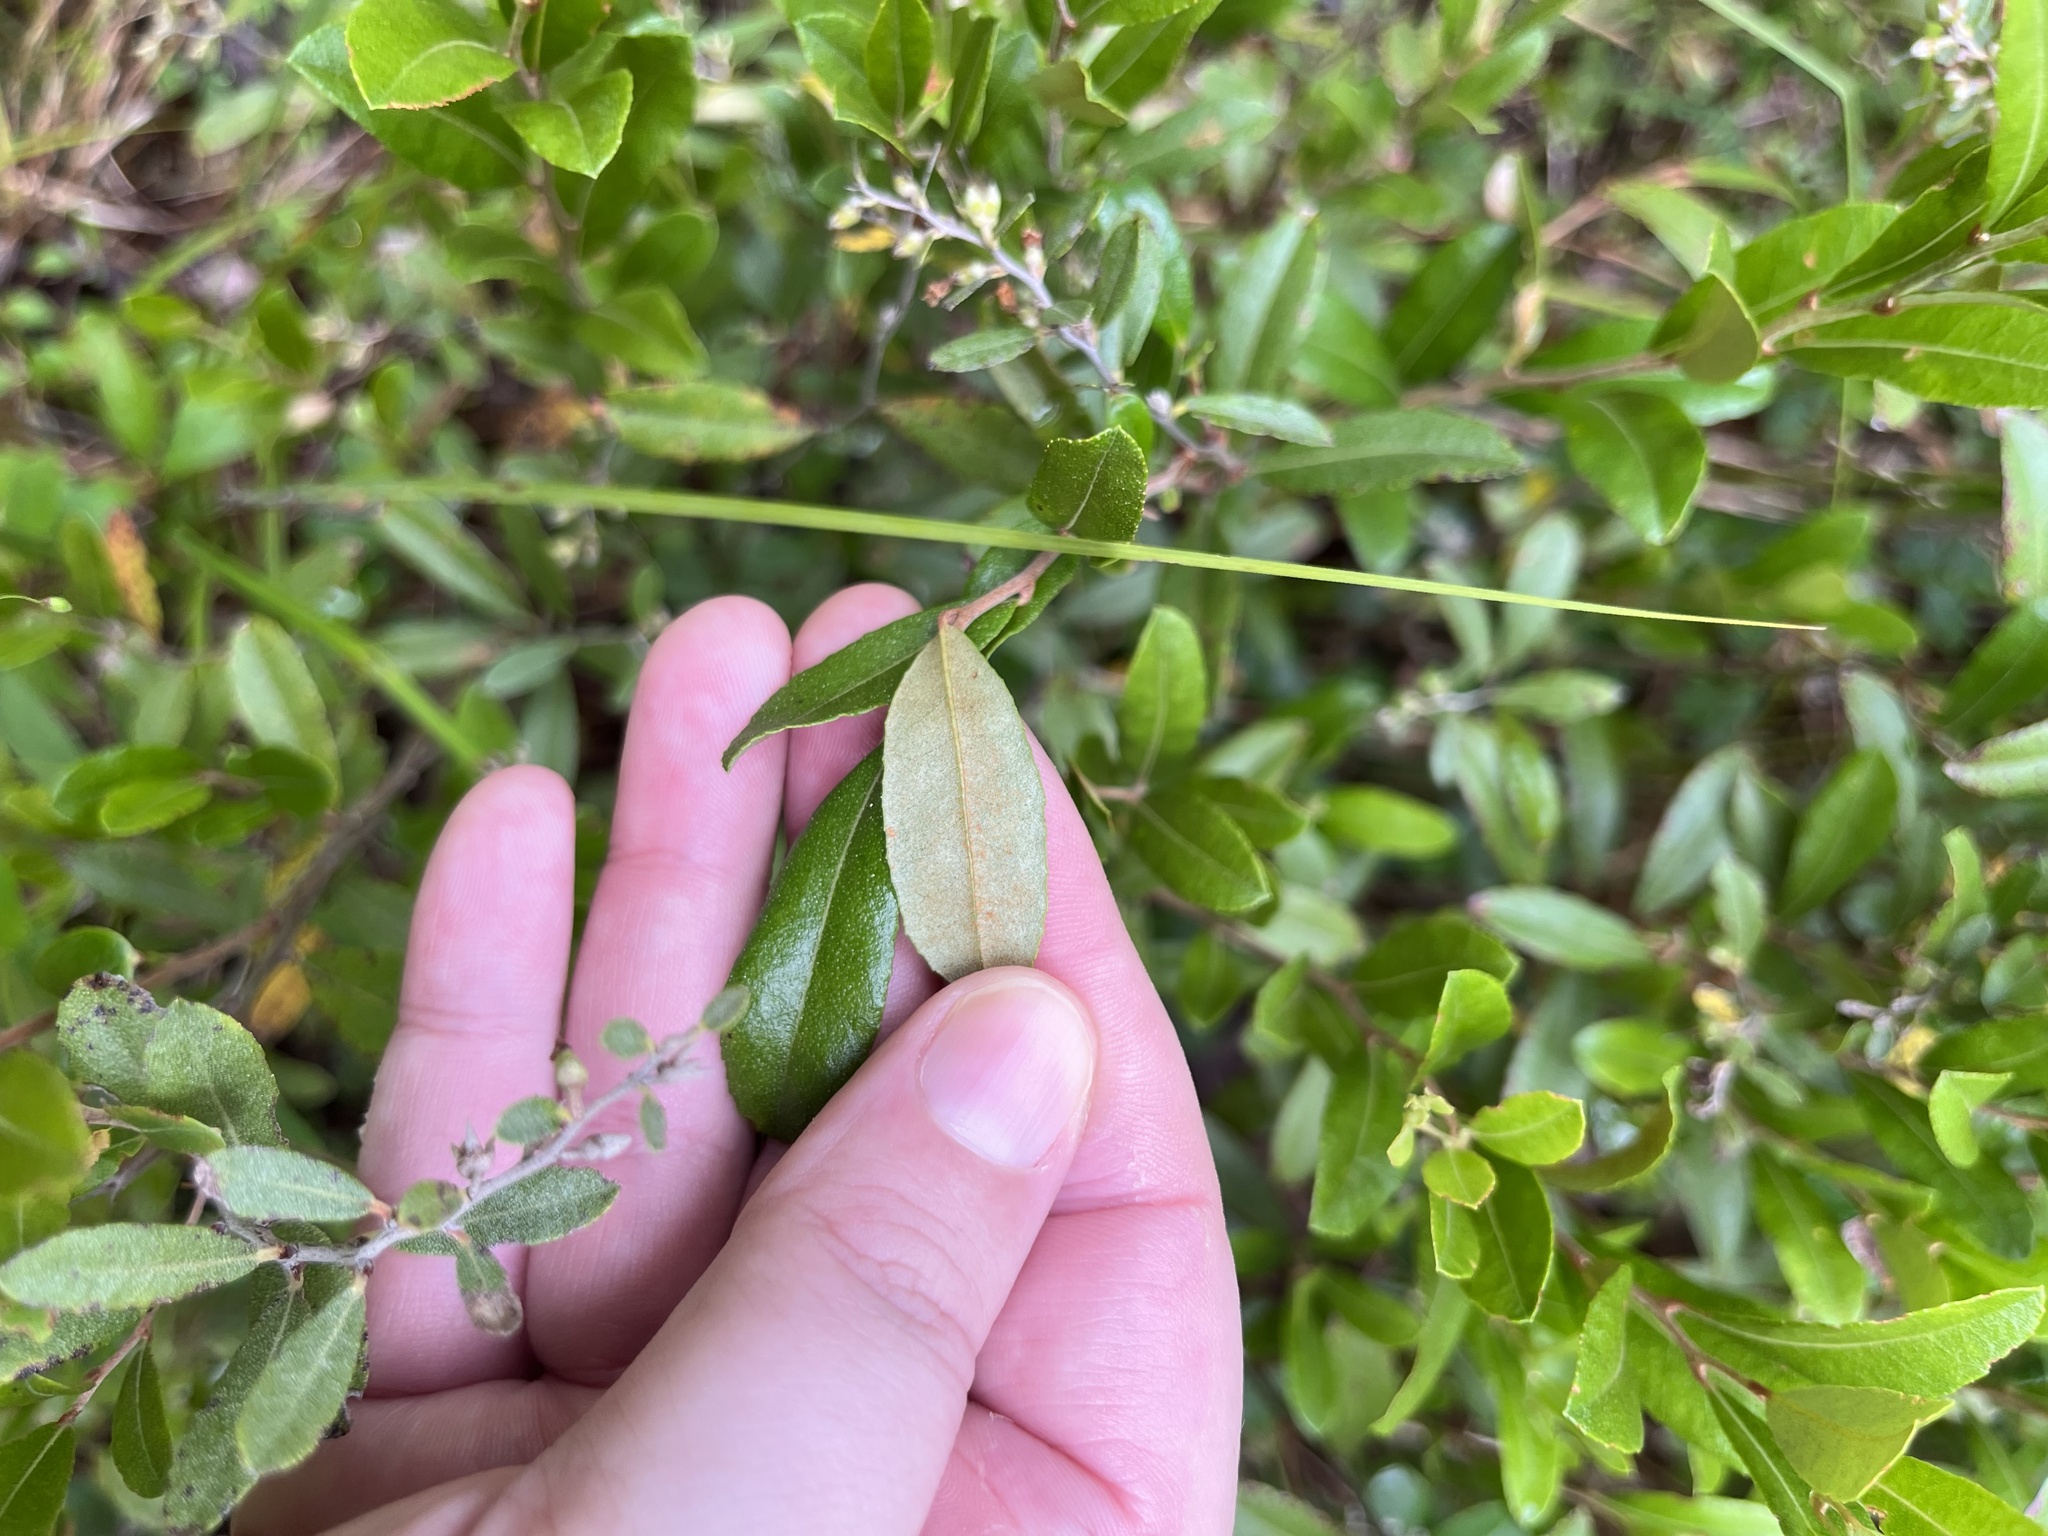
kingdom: Plantae
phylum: Tracheophyta
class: Magnoliopsida
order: Ericales
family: Ericaceae
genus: Chamaedaphne
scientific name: Chamaedaphne calyculata
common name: Leatherleaf
